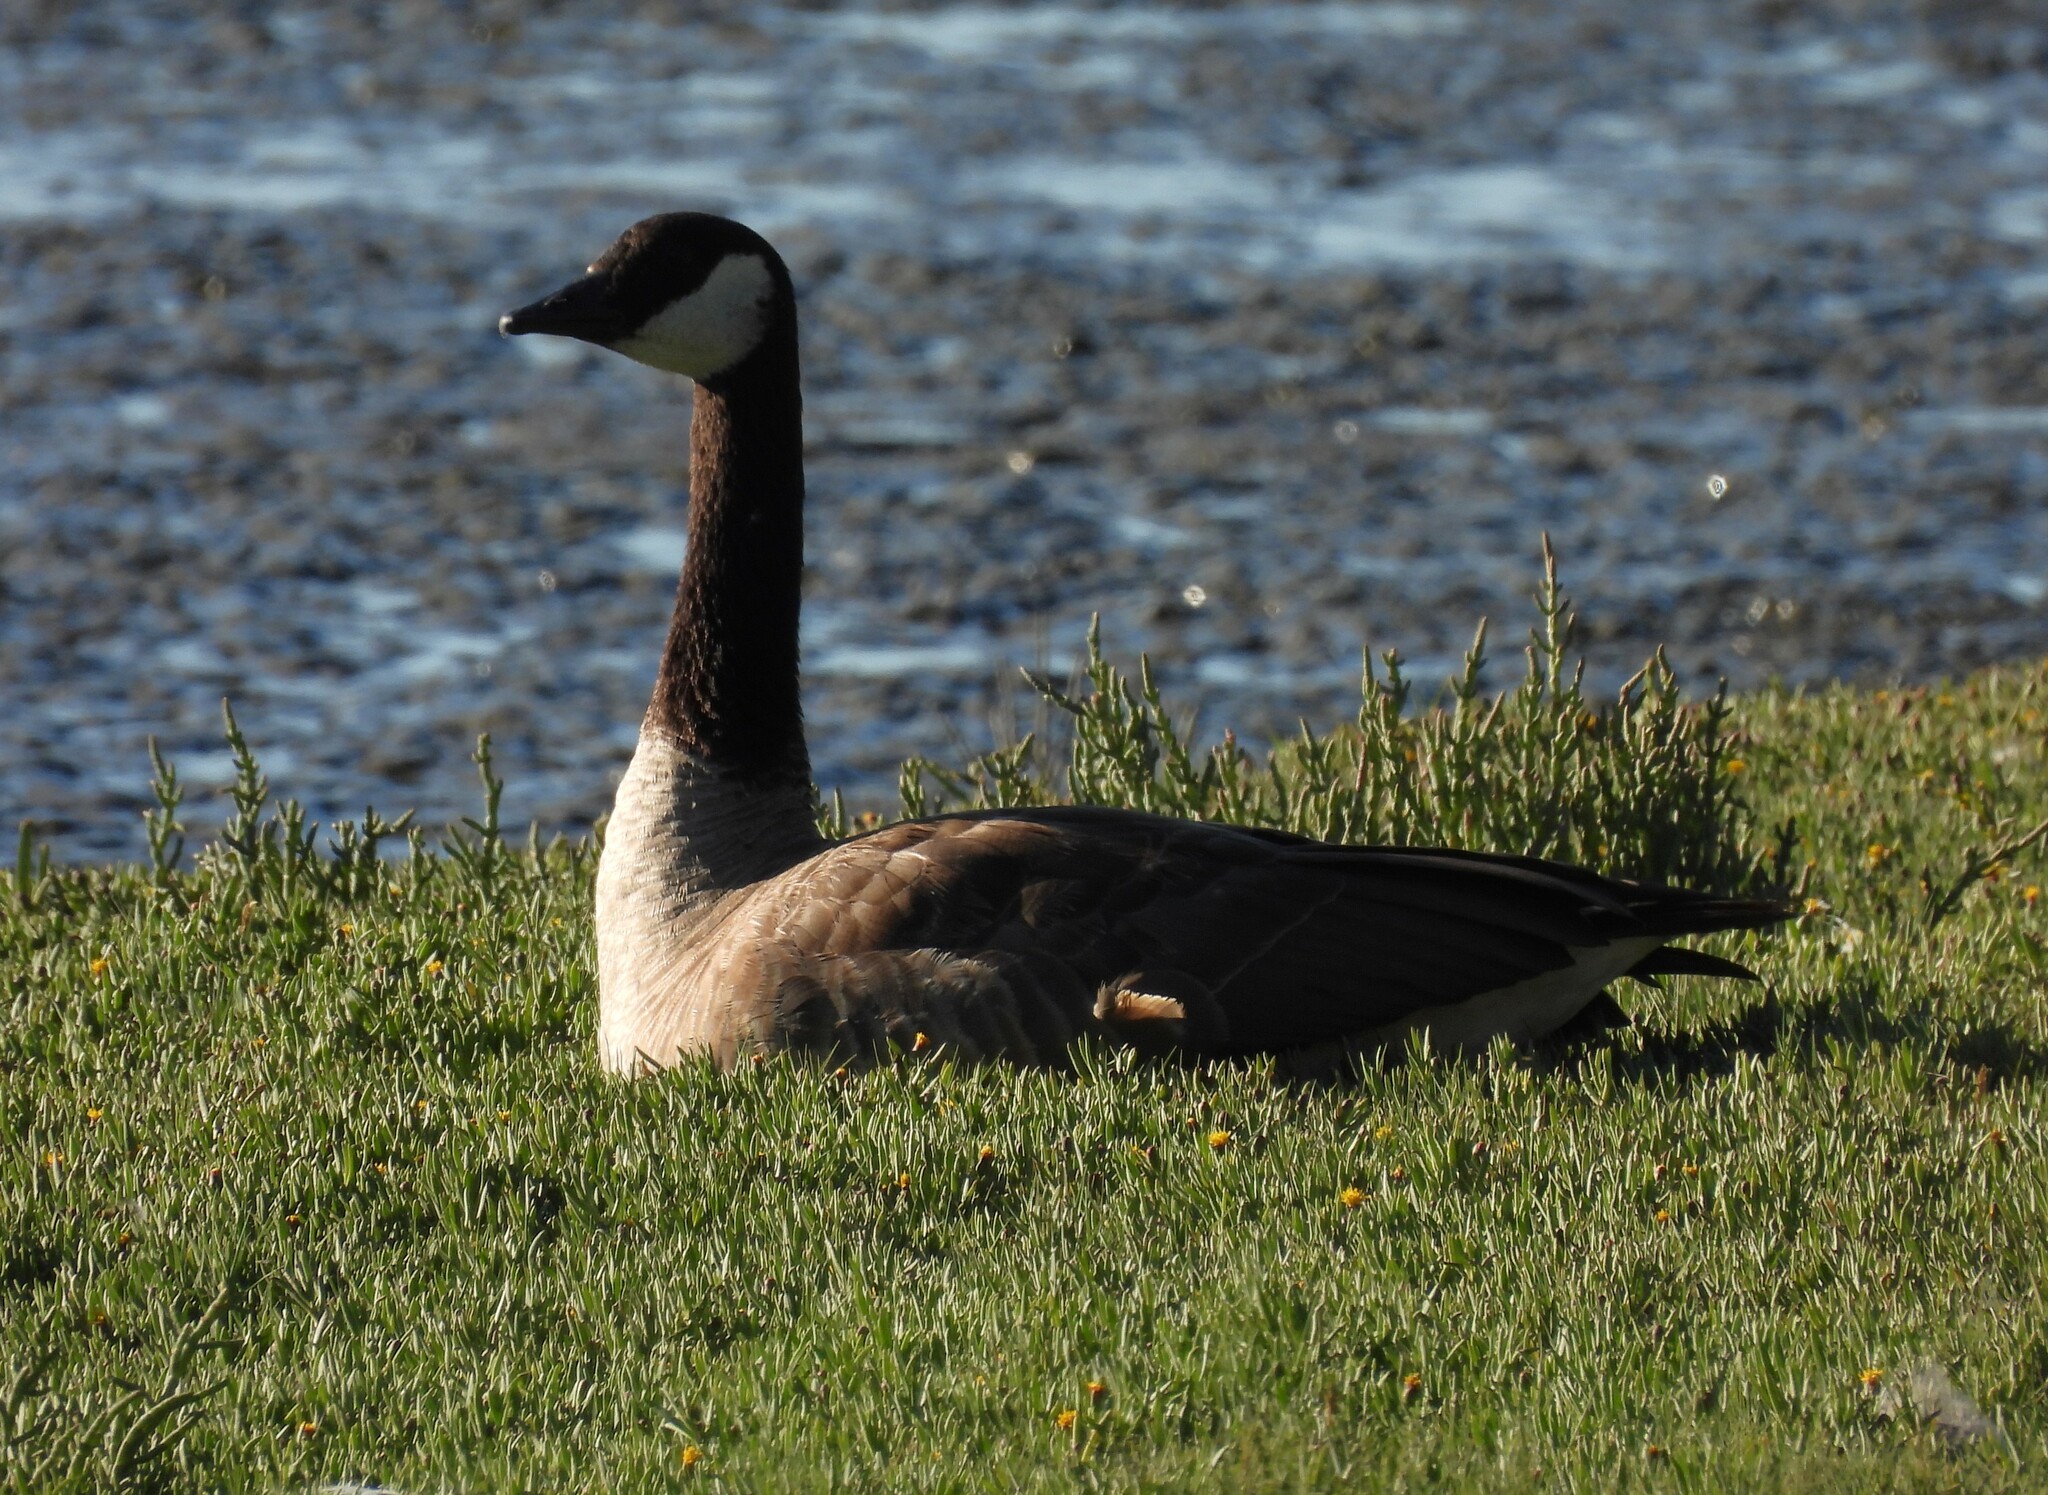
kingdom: Animalia
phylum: Chordata
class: Aves
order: Anseriformes
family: Anatidae
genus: Branta
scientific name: Branta canadensis
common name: Canada goose
